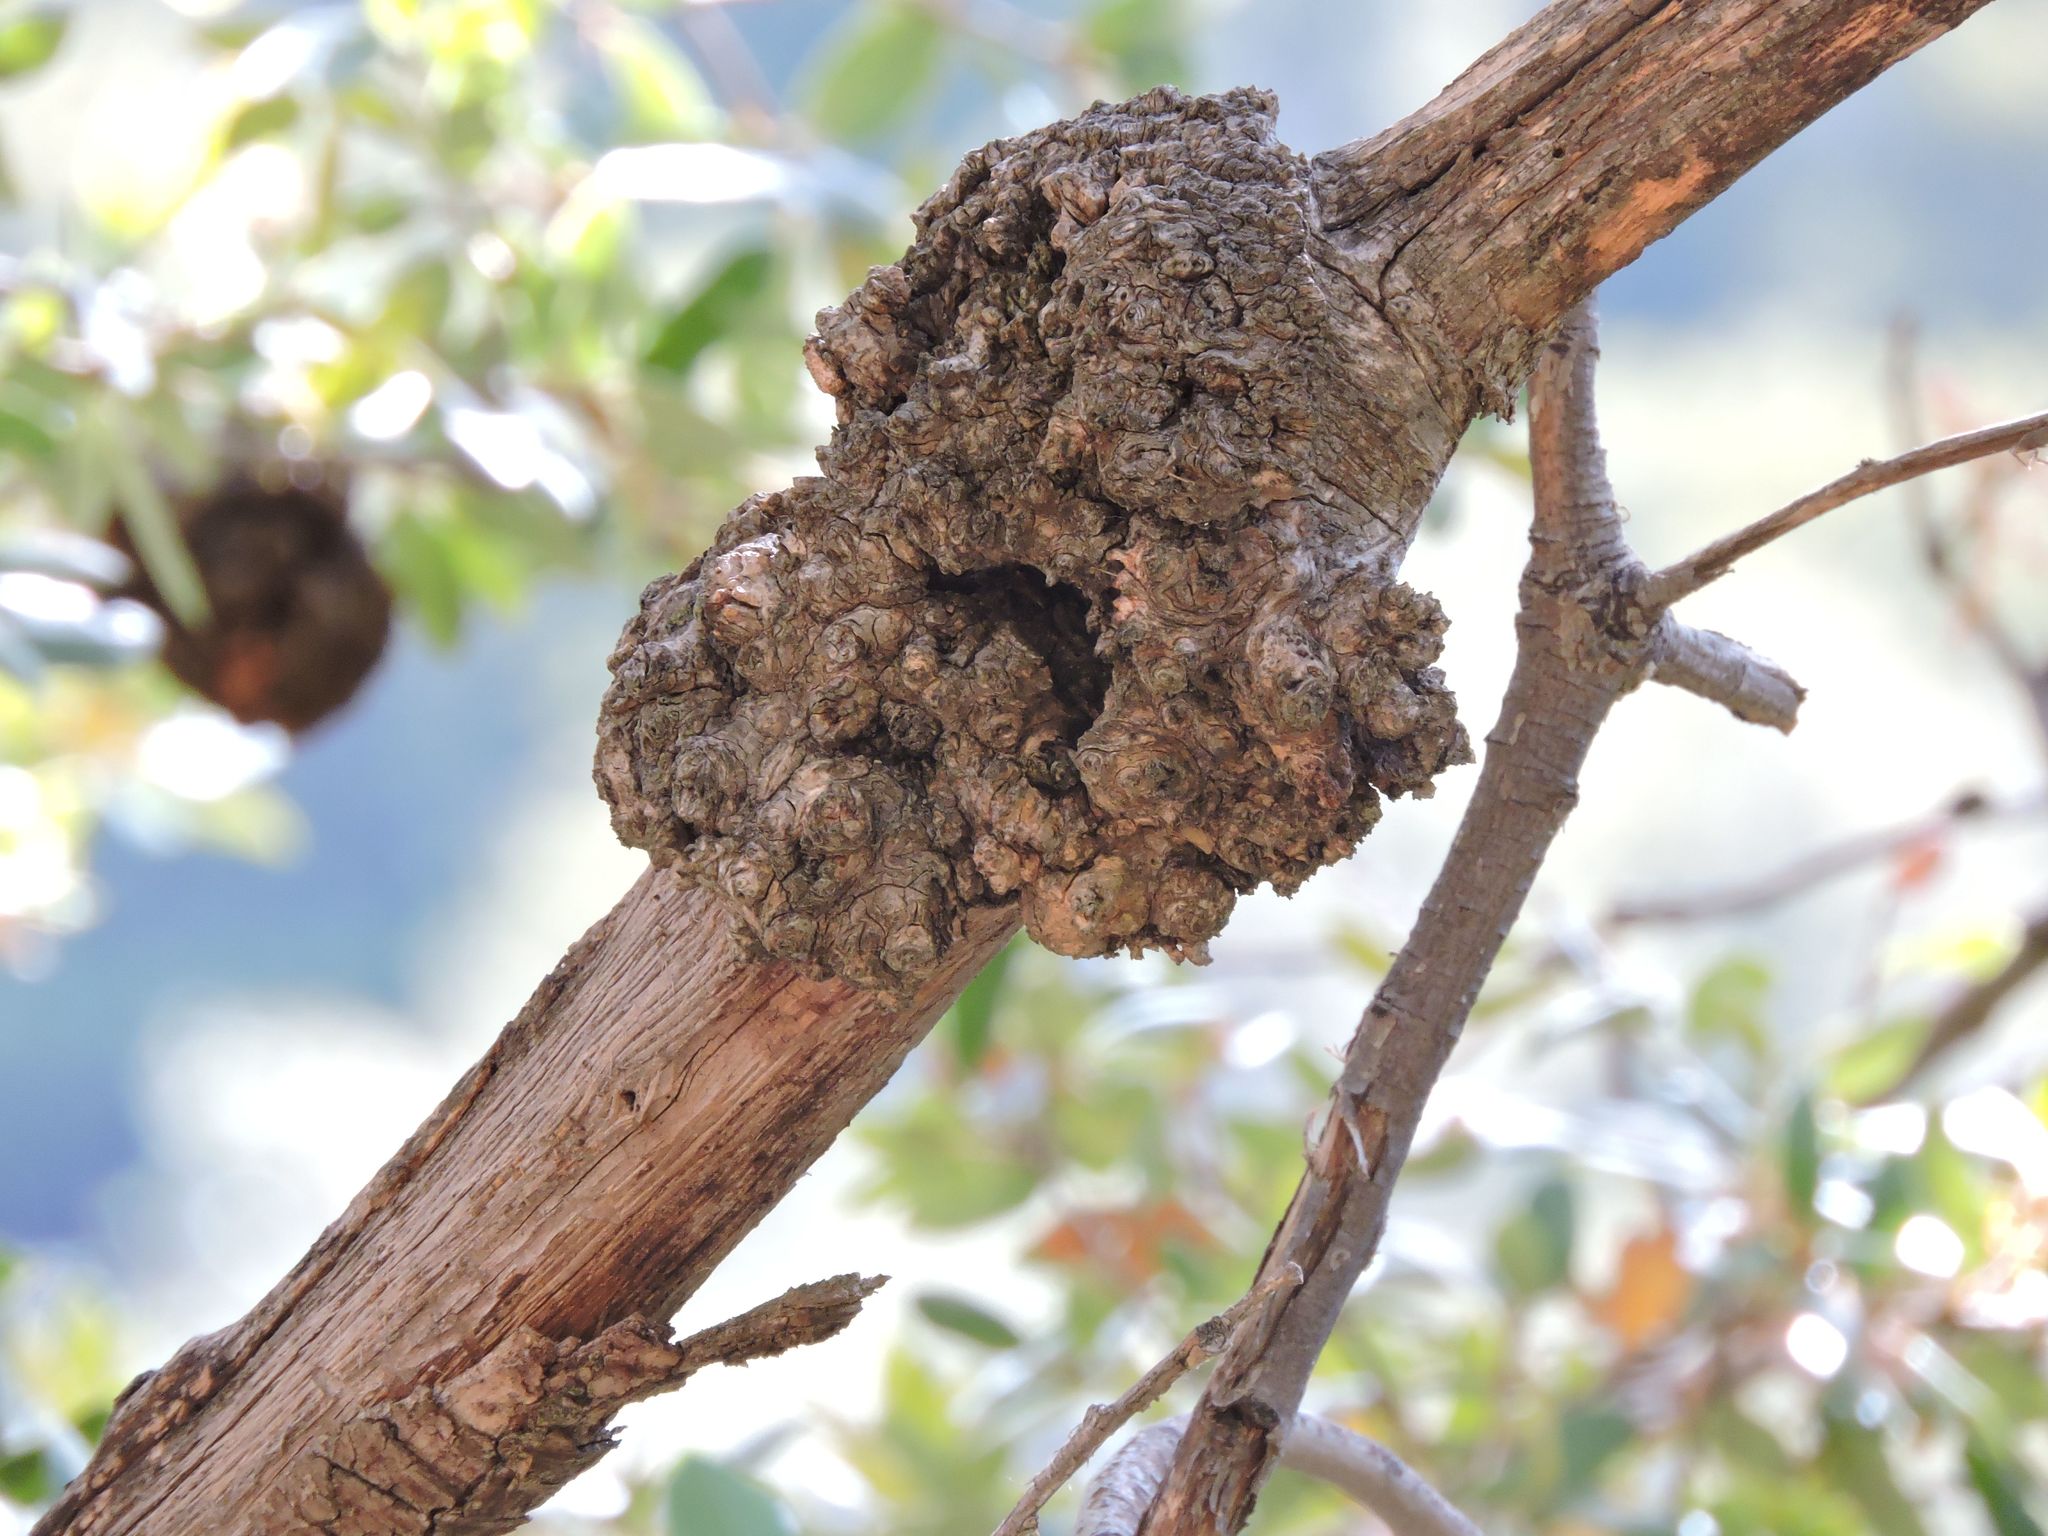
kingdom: Bacteria
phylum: Proteobacteria
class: Alphaproteobacteria
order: Rhizobiales
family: Rhizobiaceae
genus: Rhizobium
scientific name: Rhizobium Agrobacterium radiobacter
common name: Bacterial crown gall
